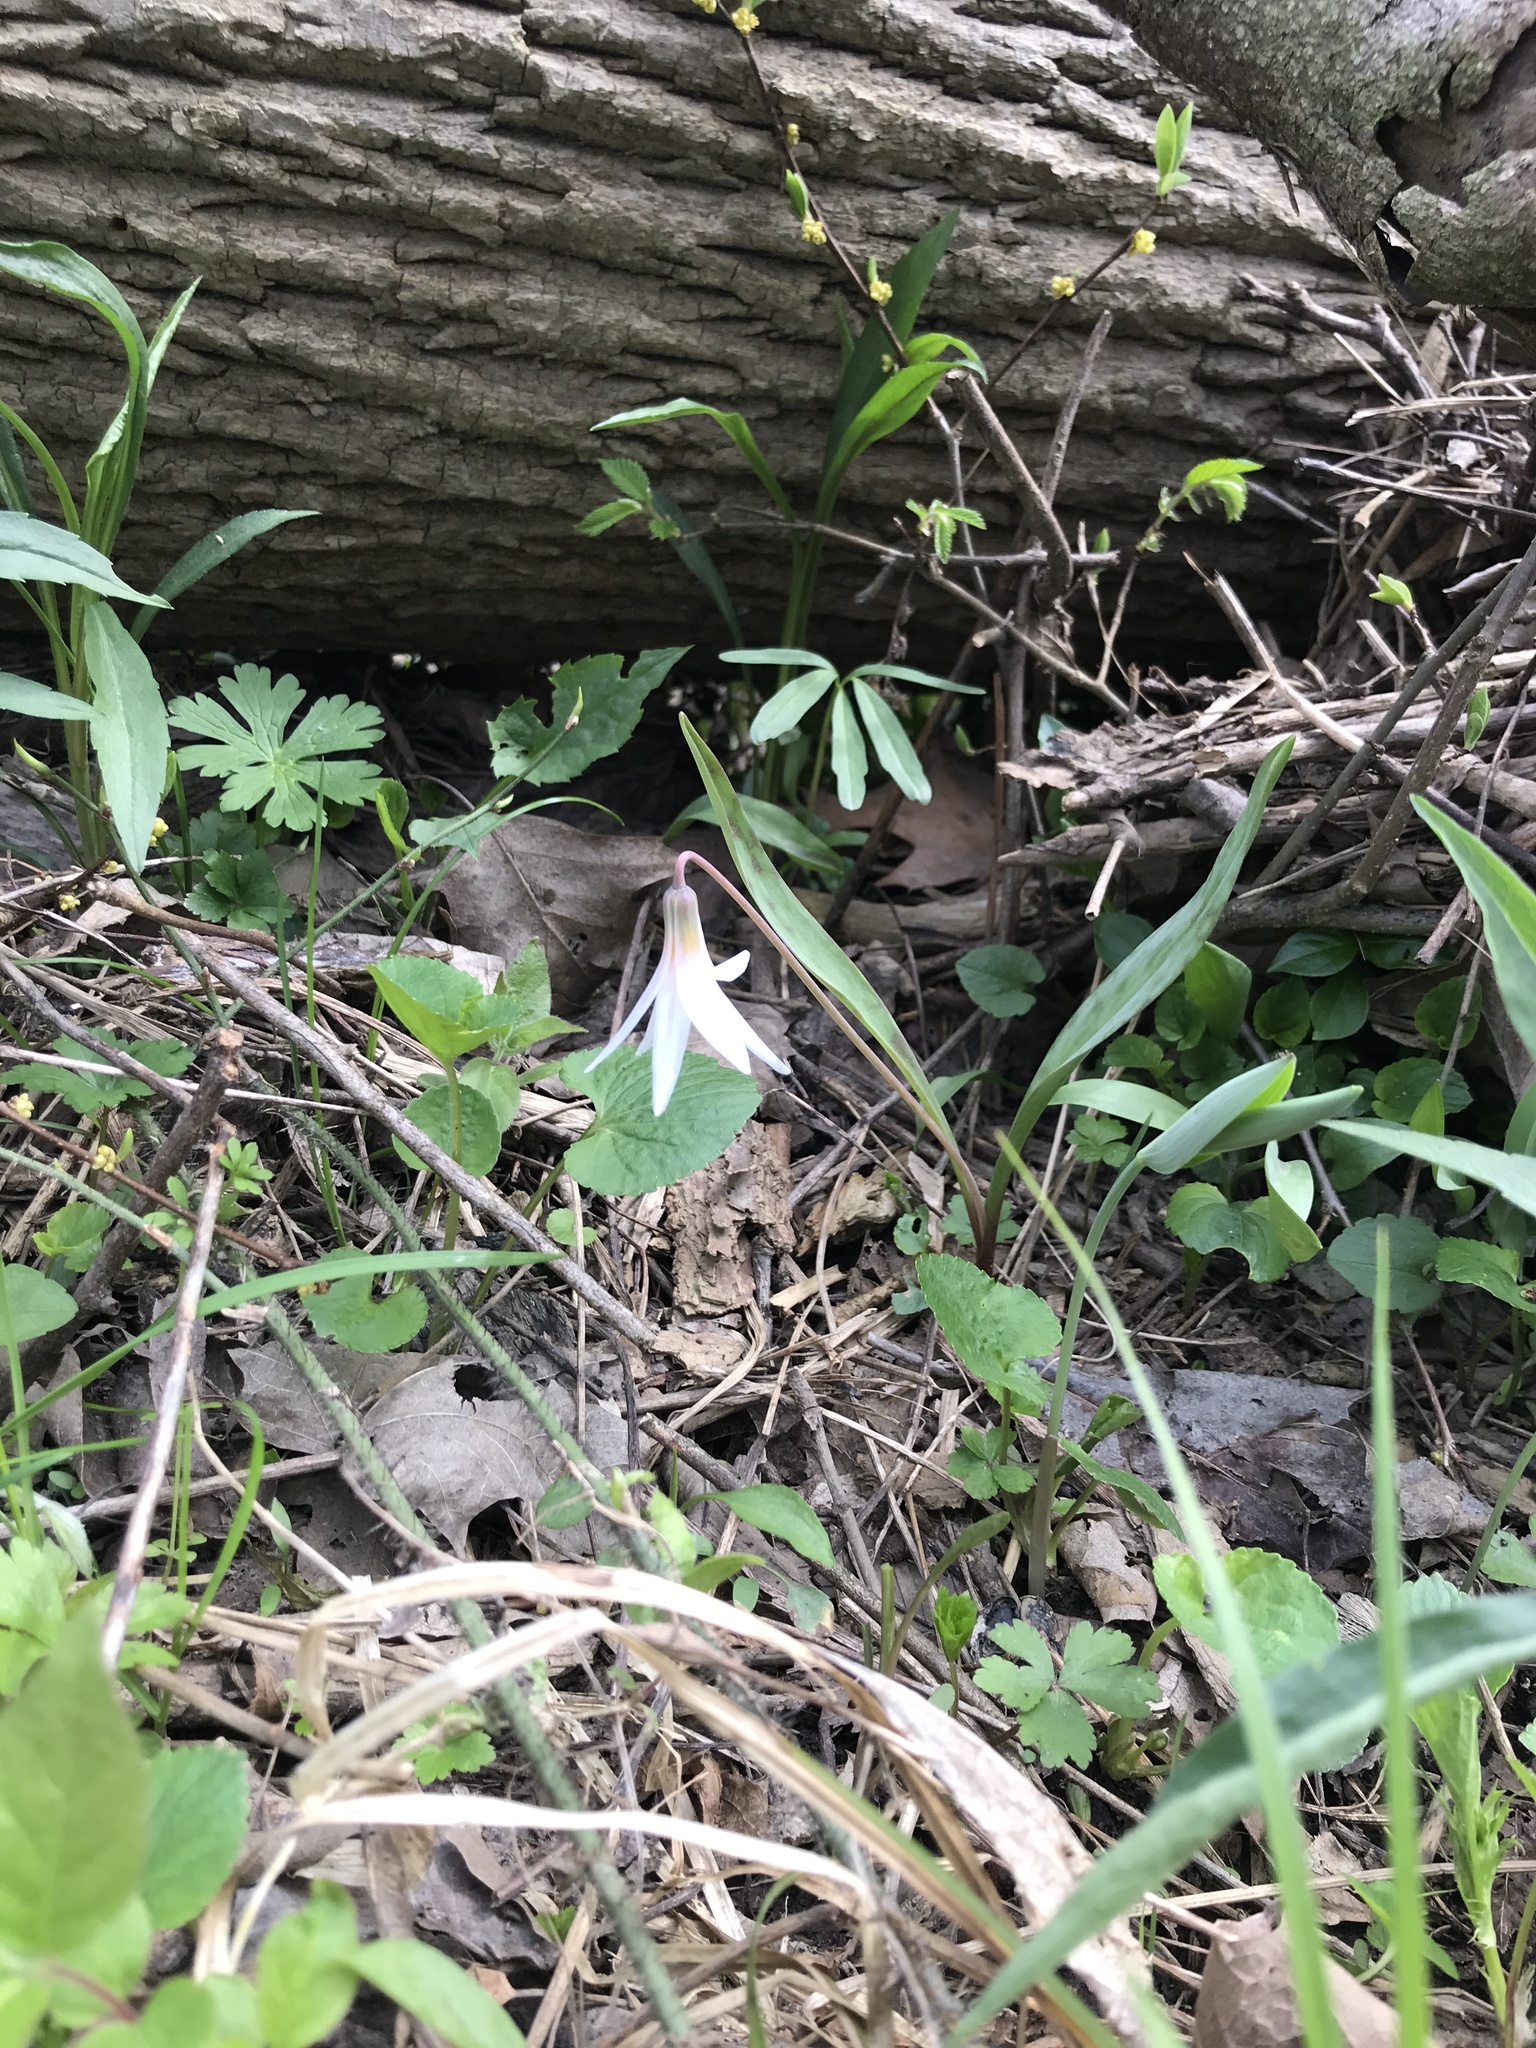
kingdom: Plantae
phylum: Tracheophyta
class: Liliopsida
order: Liliales
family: Liliaceae
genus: Erythronium
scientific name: Erythronium albidum
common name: White trout-lily
